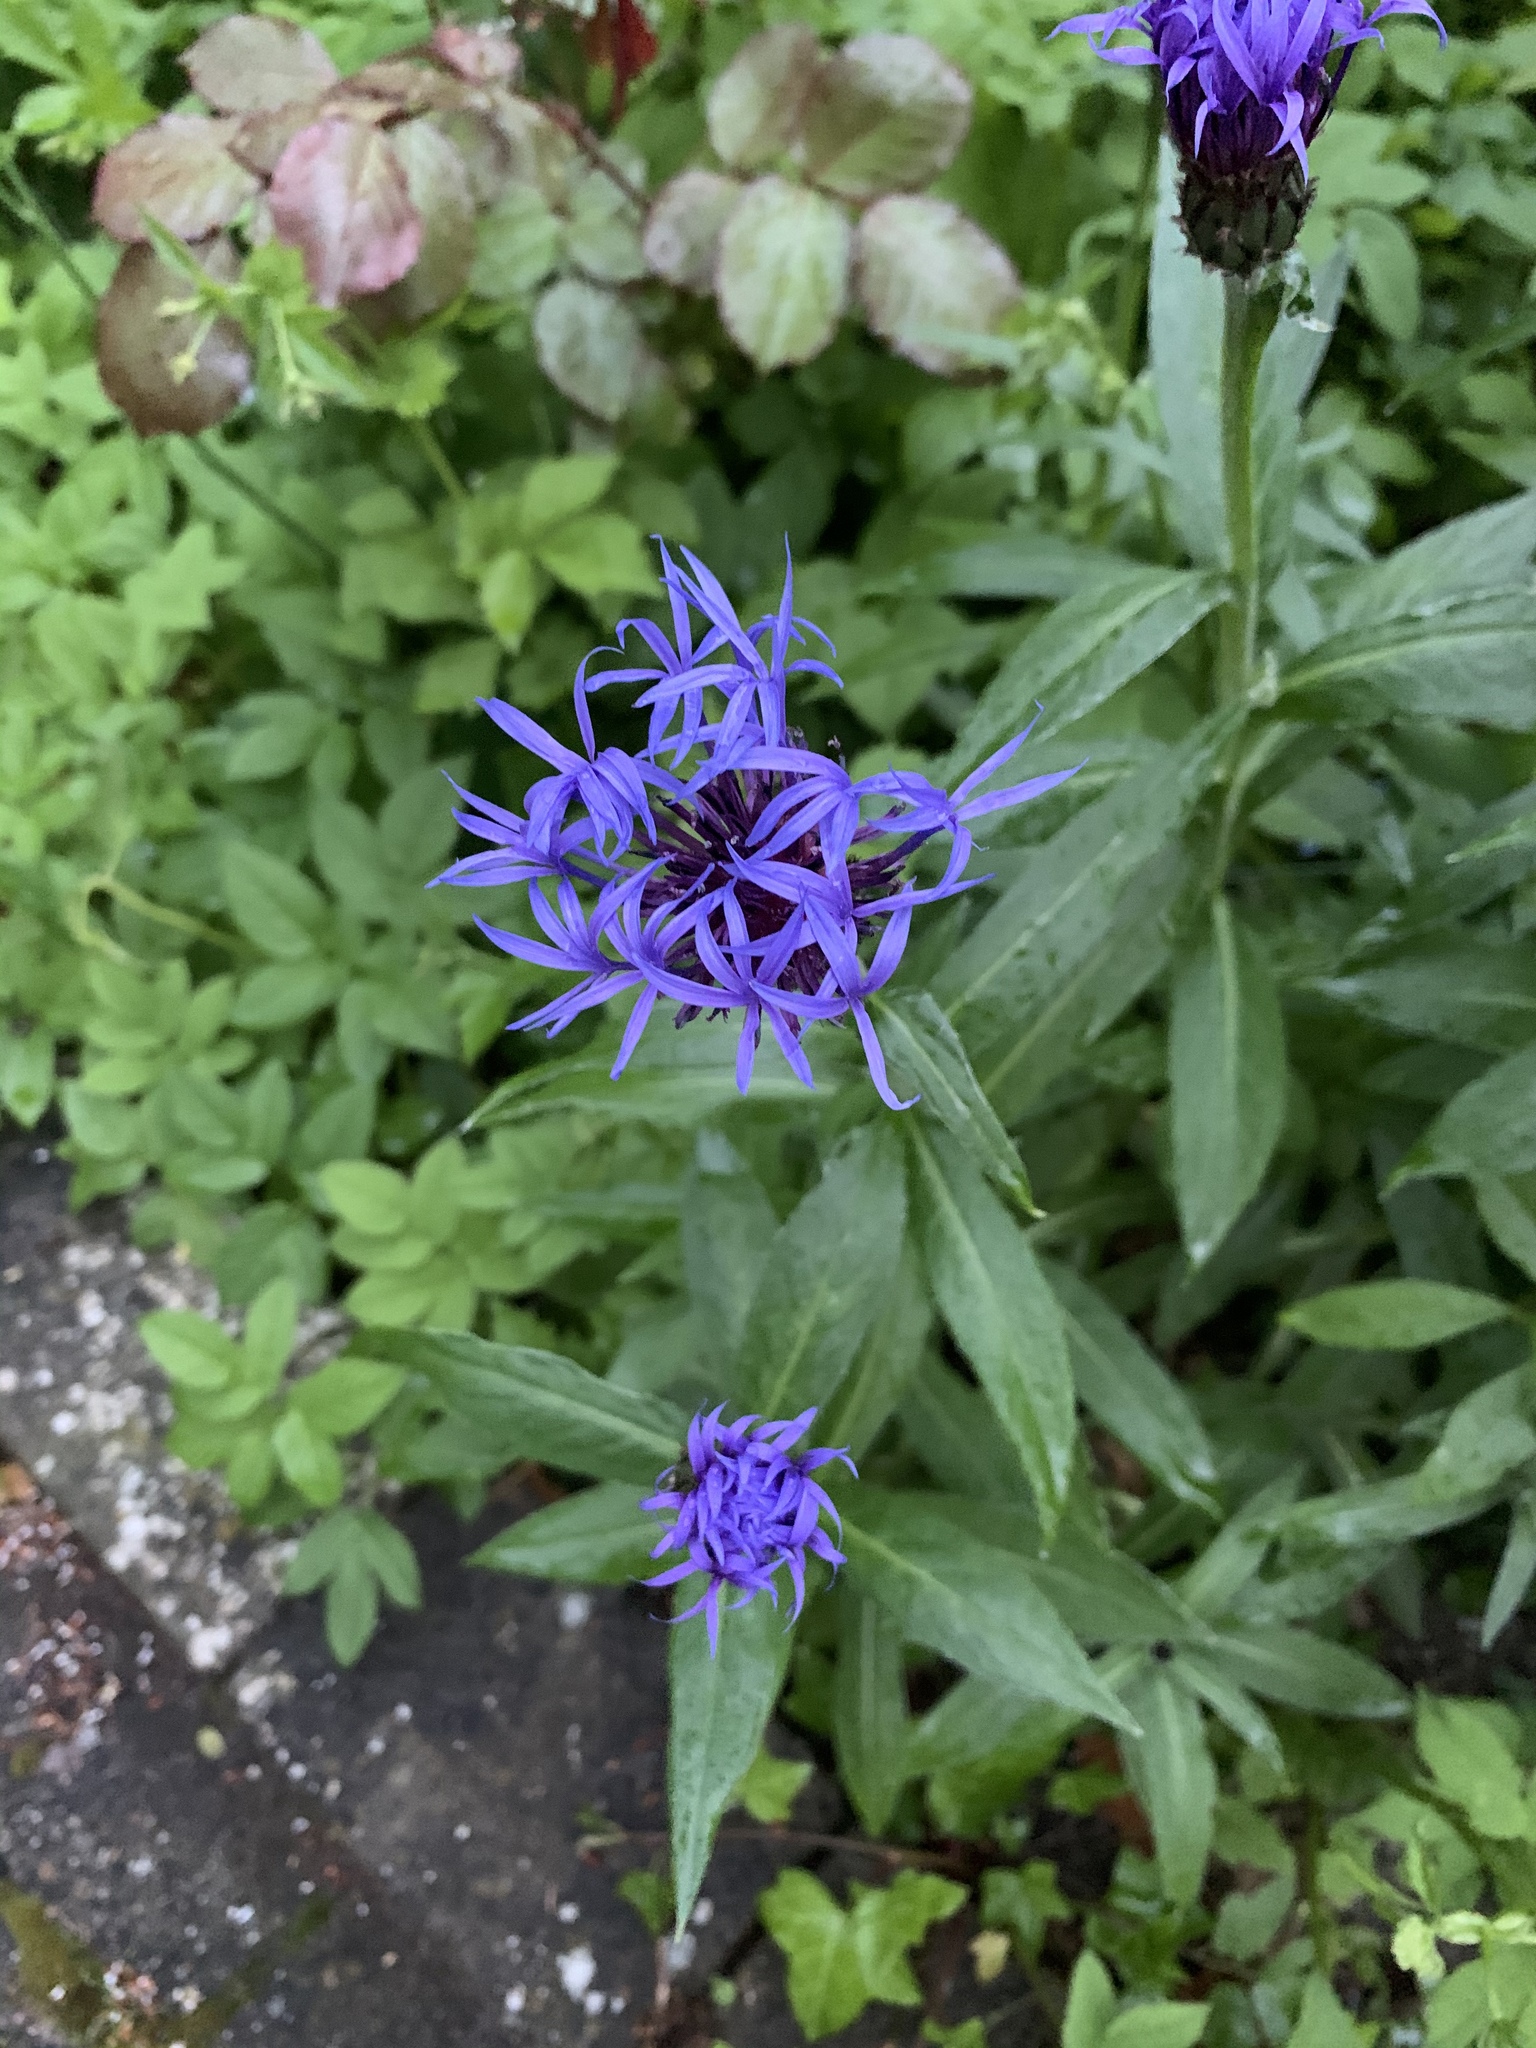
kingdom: Plantae
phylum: Tracheophyta
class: Magnoliopsida
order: Asterales
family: Asteraceae
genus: Centaurea
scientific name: Centaurea montana
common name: Perennial cornflower
